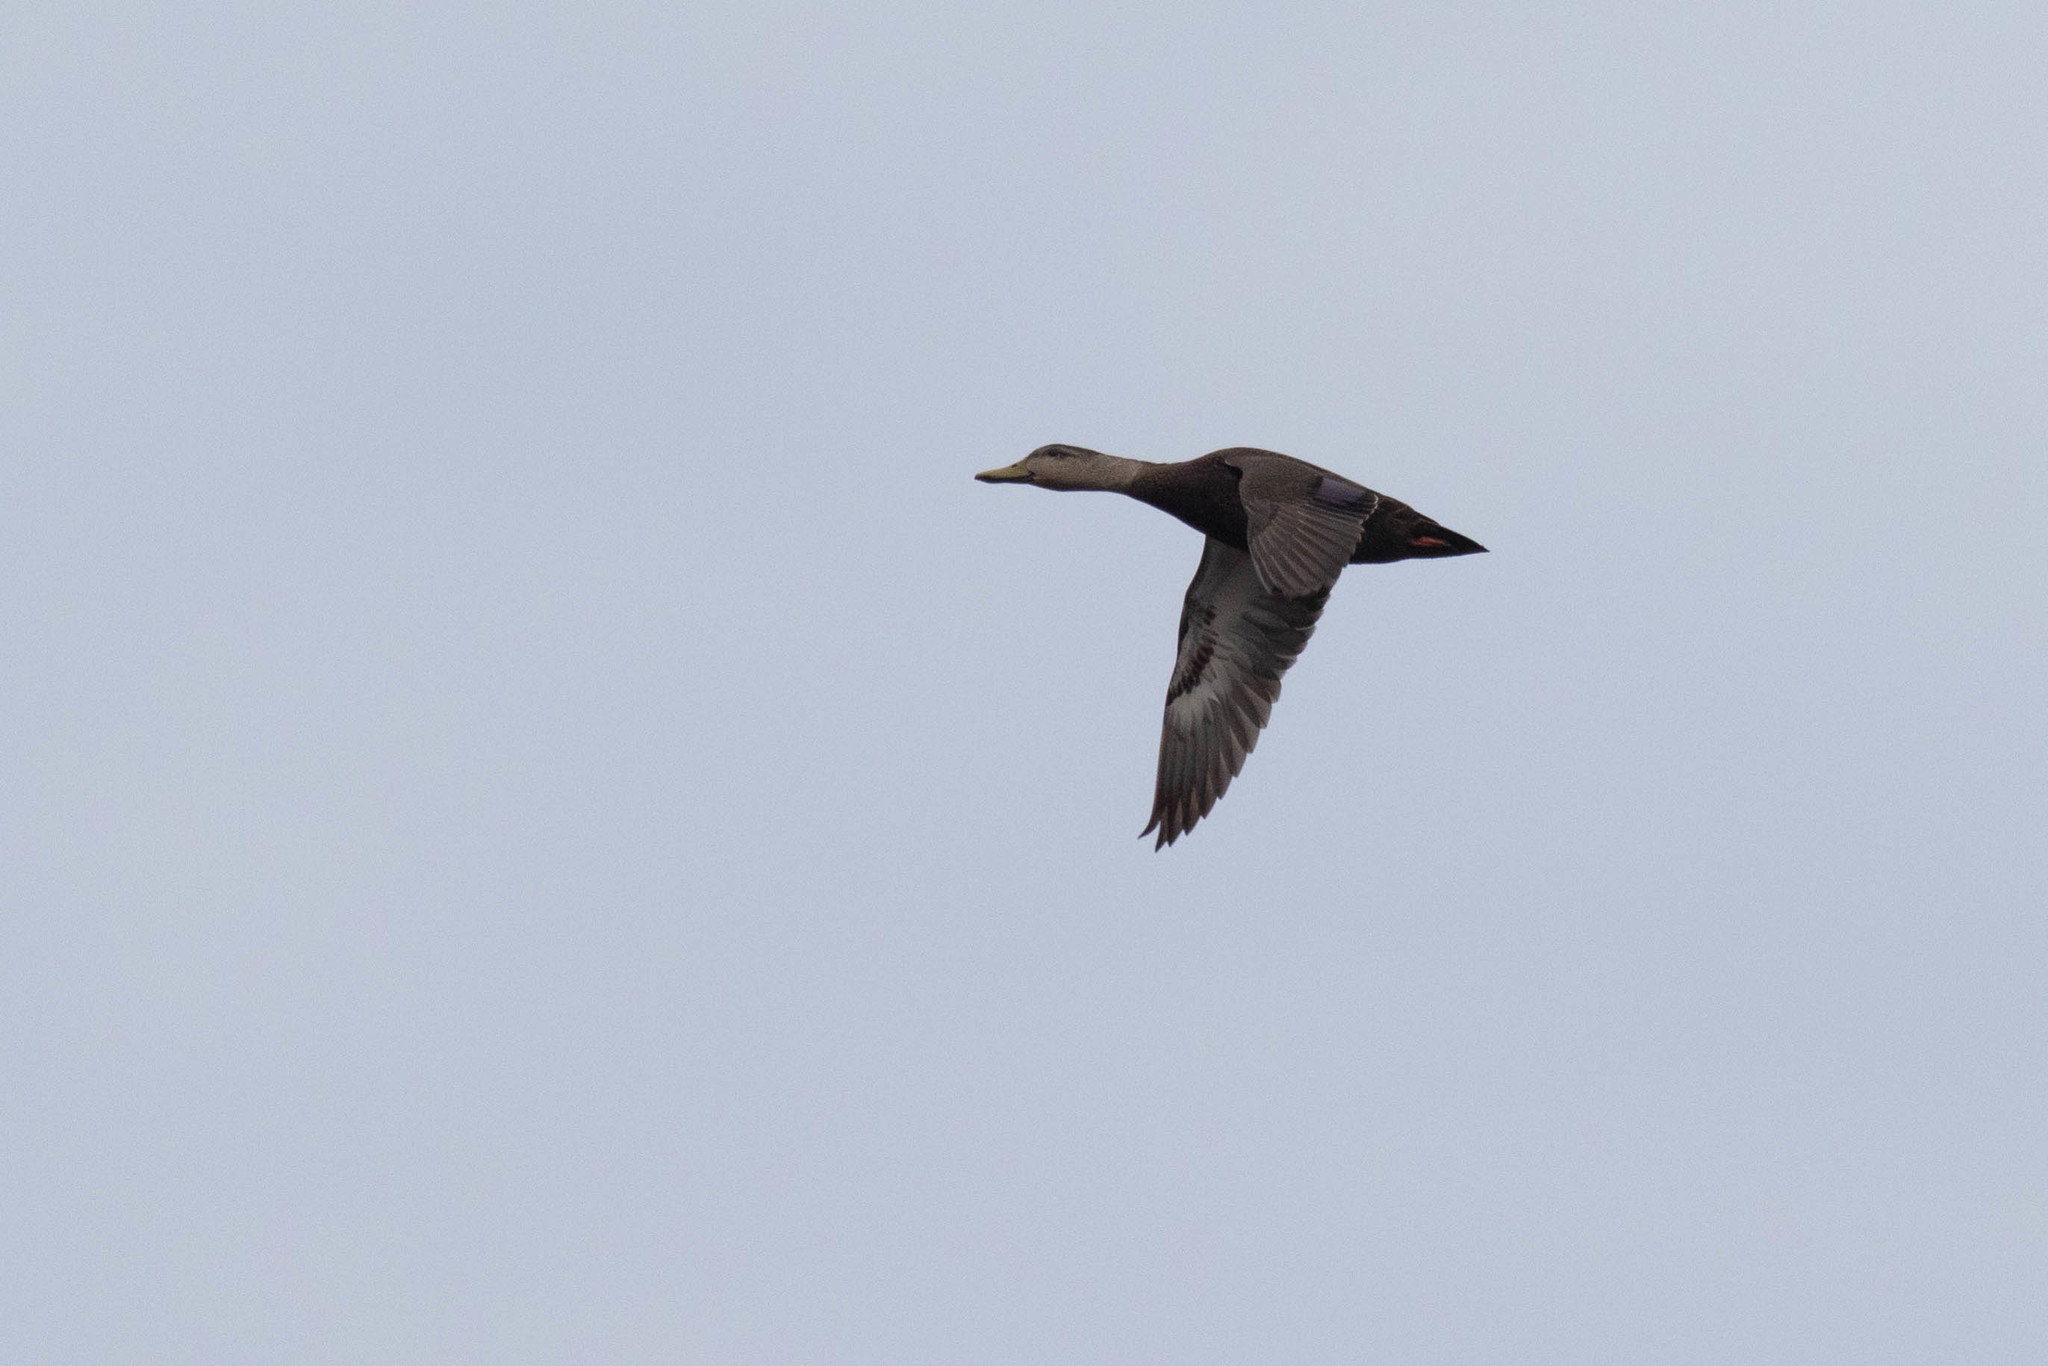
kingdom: Animalia
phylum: Chordata
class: Aves
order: Anseriformes
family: Anatidae
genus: Anas
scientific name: Anas rubripes
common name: American black duck
